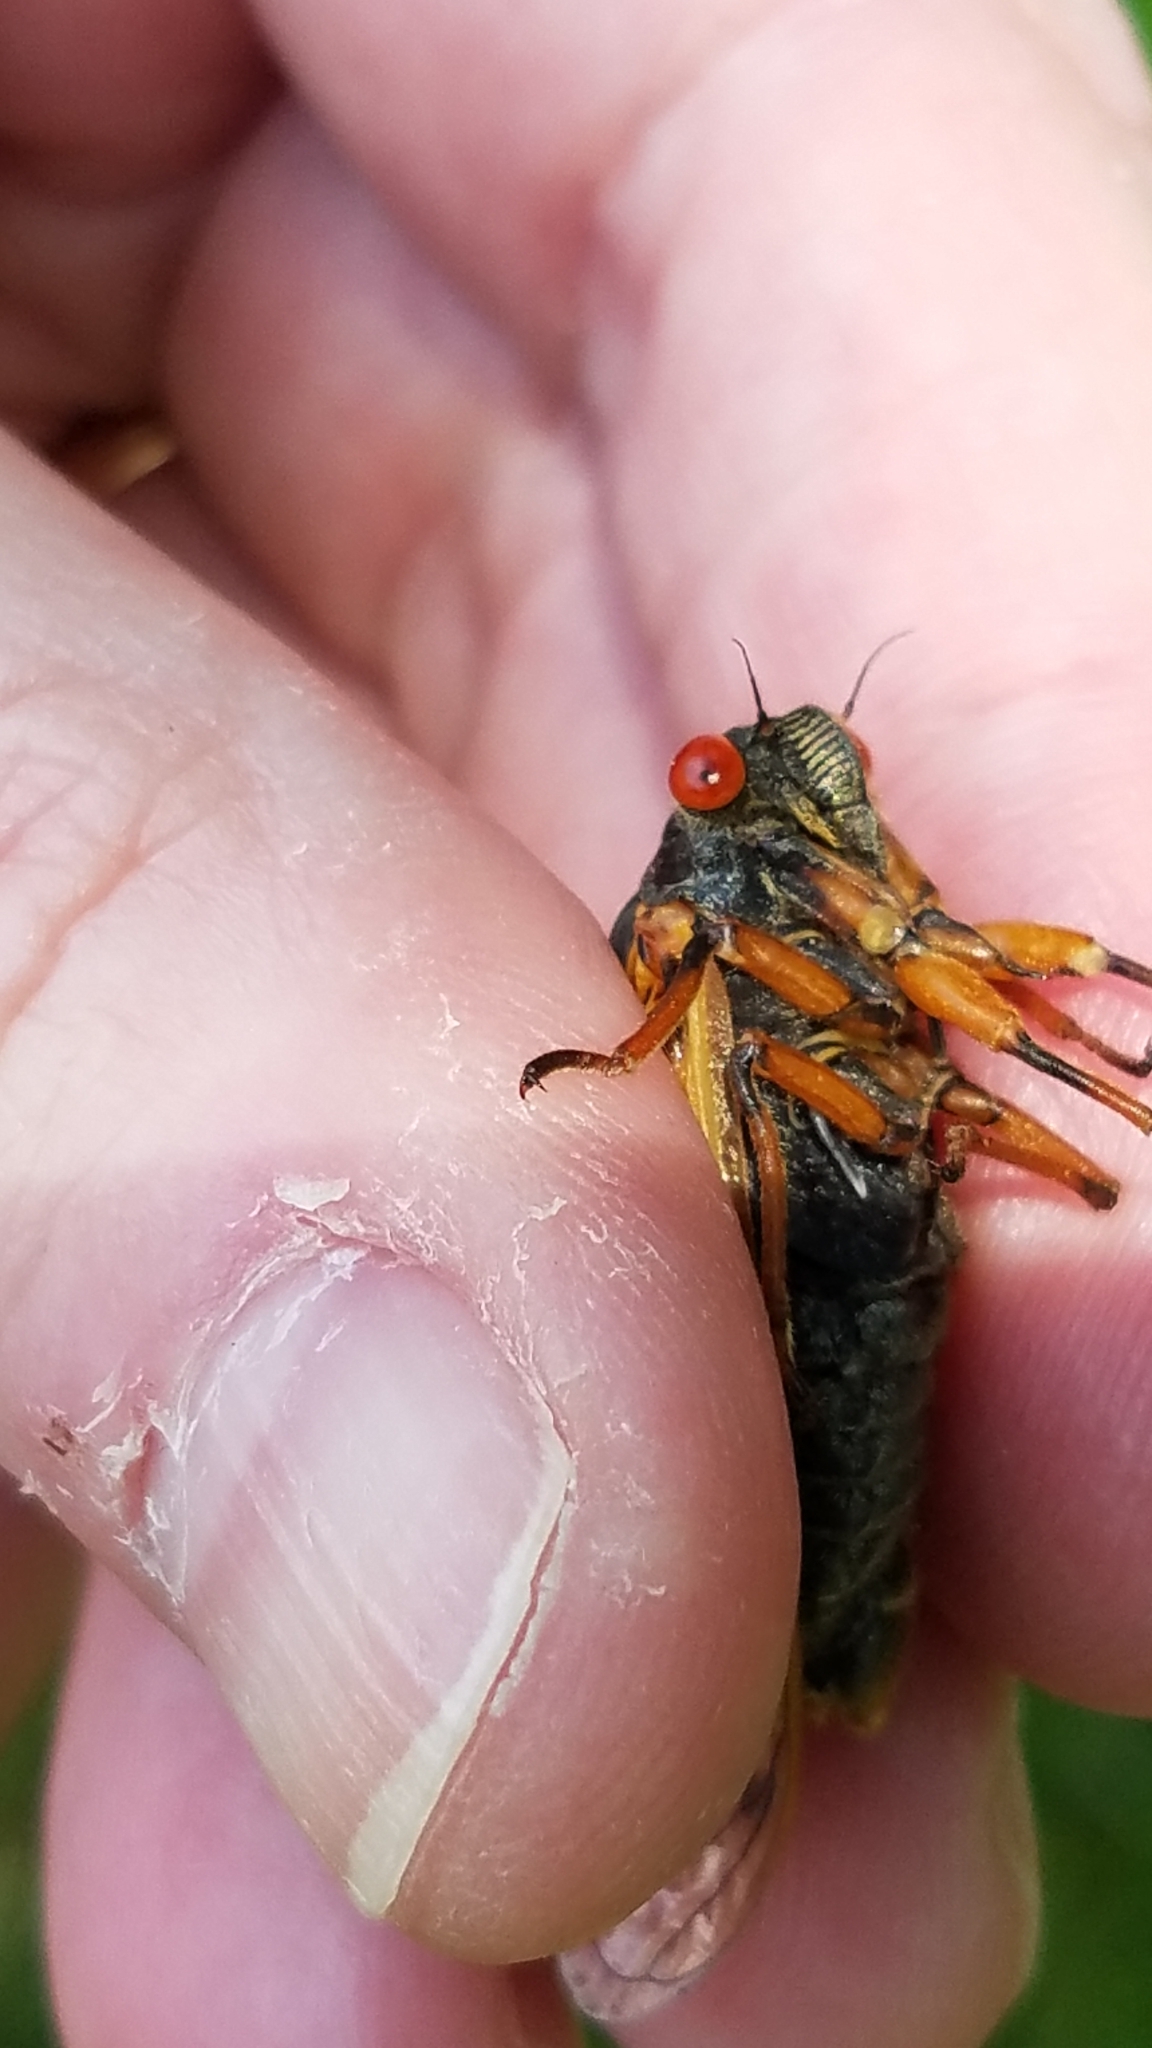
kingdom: Animalia
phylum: Arthropoda
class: Insecta
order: Hemiptera
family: Cicadidae
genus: Magicicada
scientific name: Magicicada cassini
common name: Cassin's 17-year cicada
